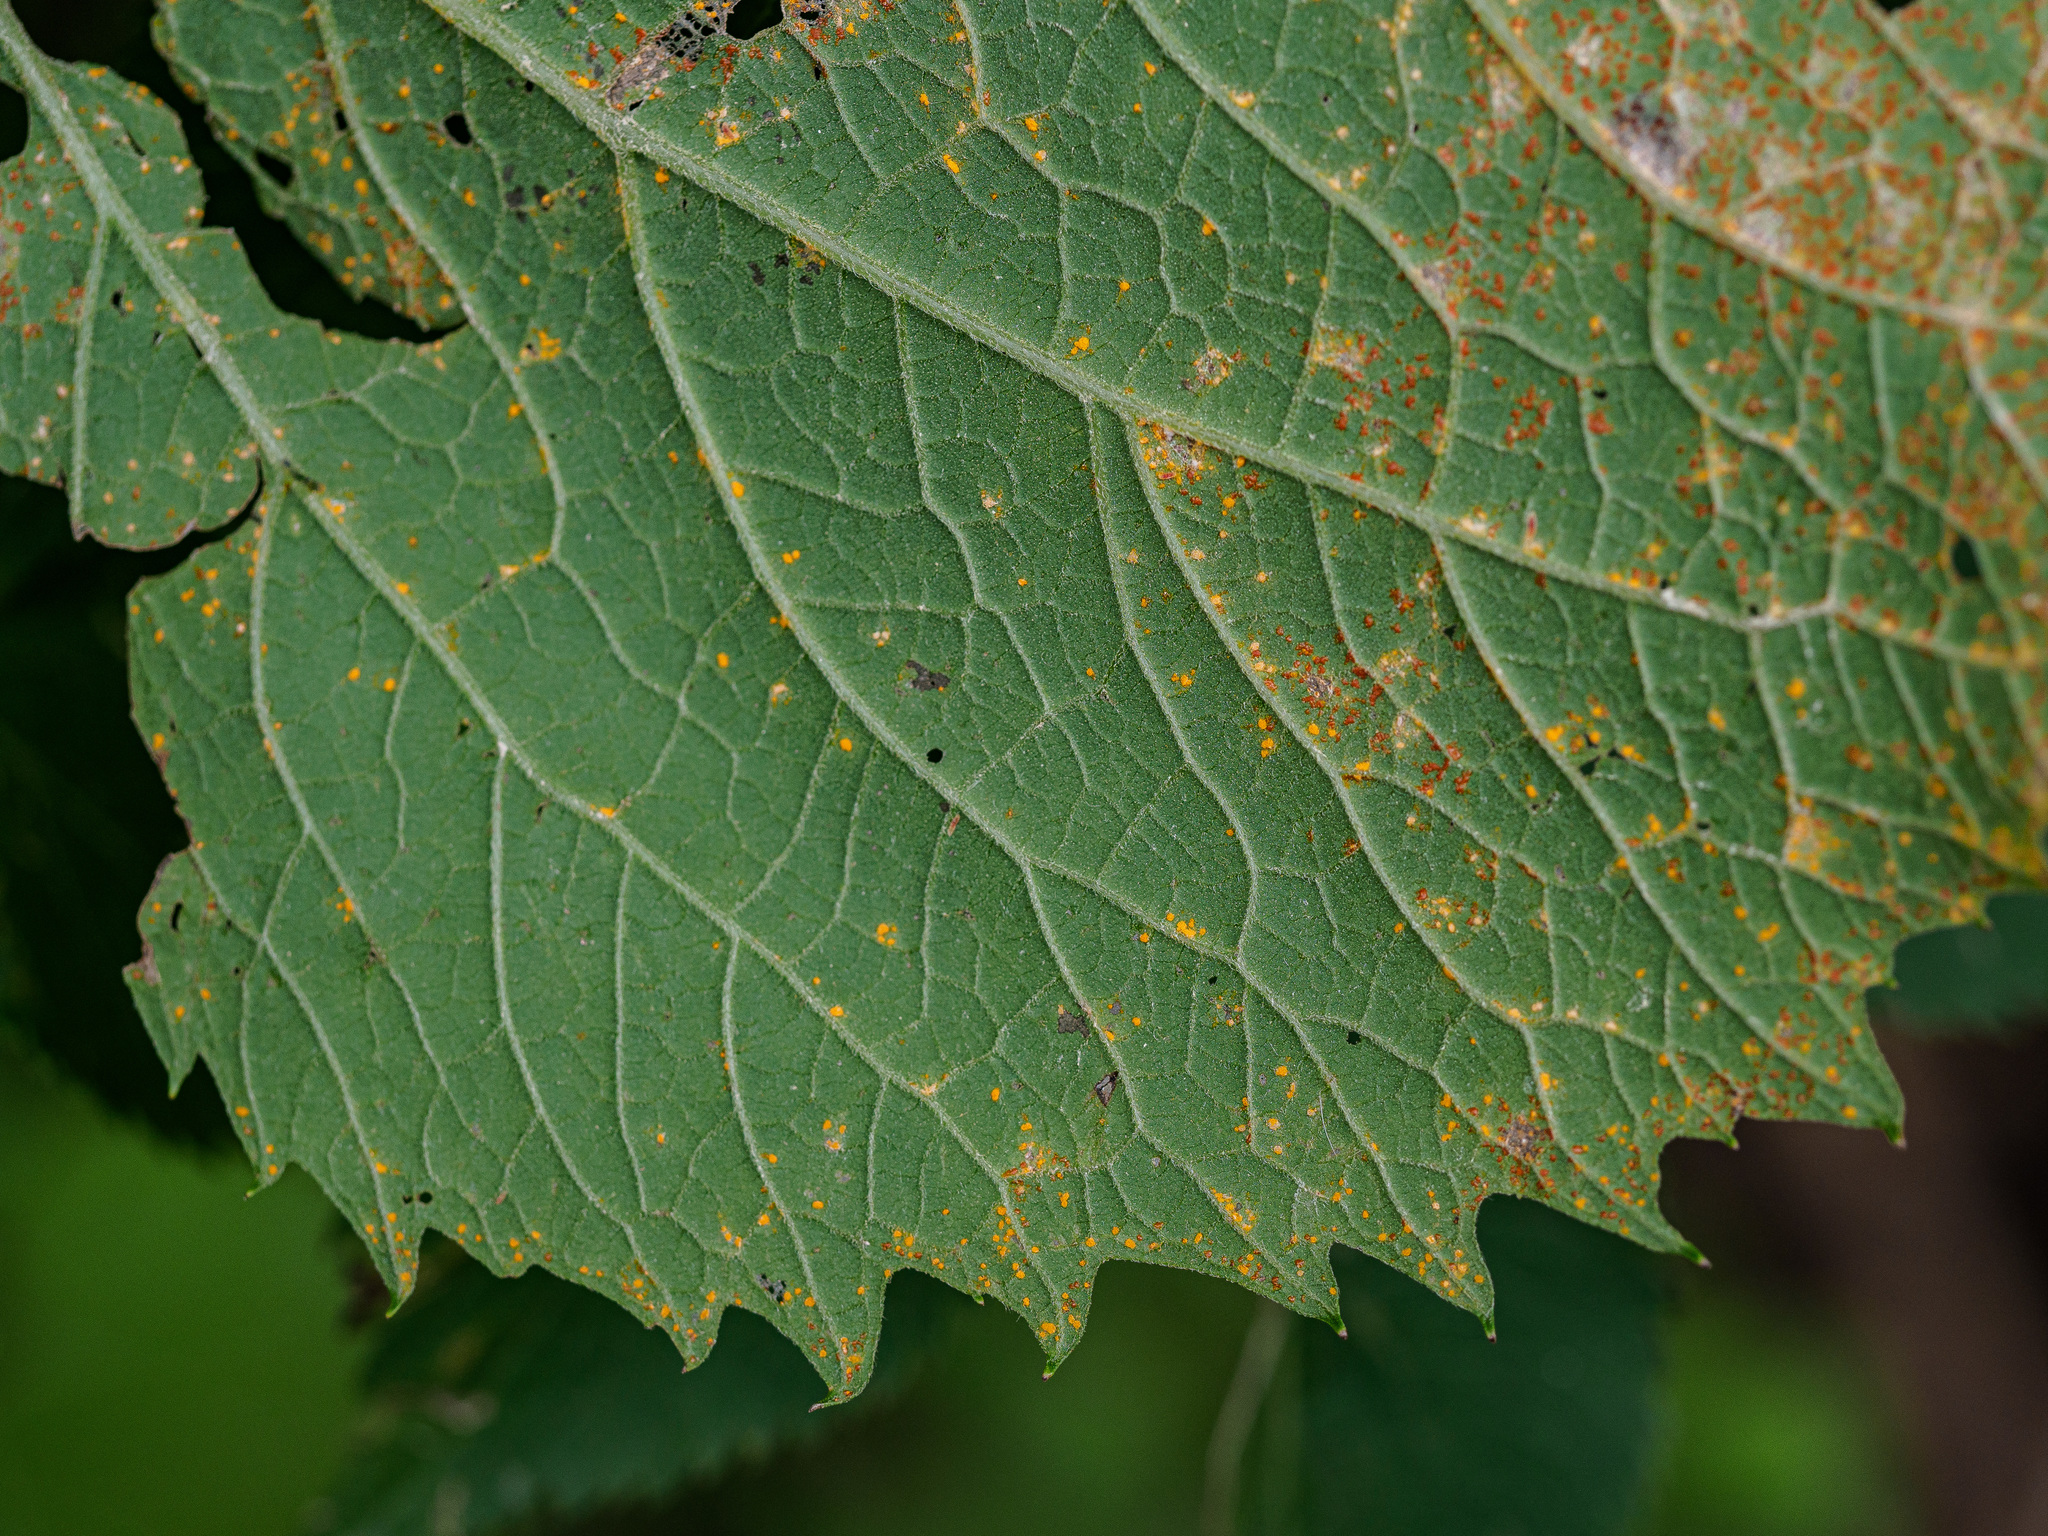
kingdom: Fungi
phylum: Basidiomycota
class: Pucciniomycetes
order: Pucciniales
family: Coleosporiaceae
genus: Coleosporium
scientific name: Coleosporium telekiae
